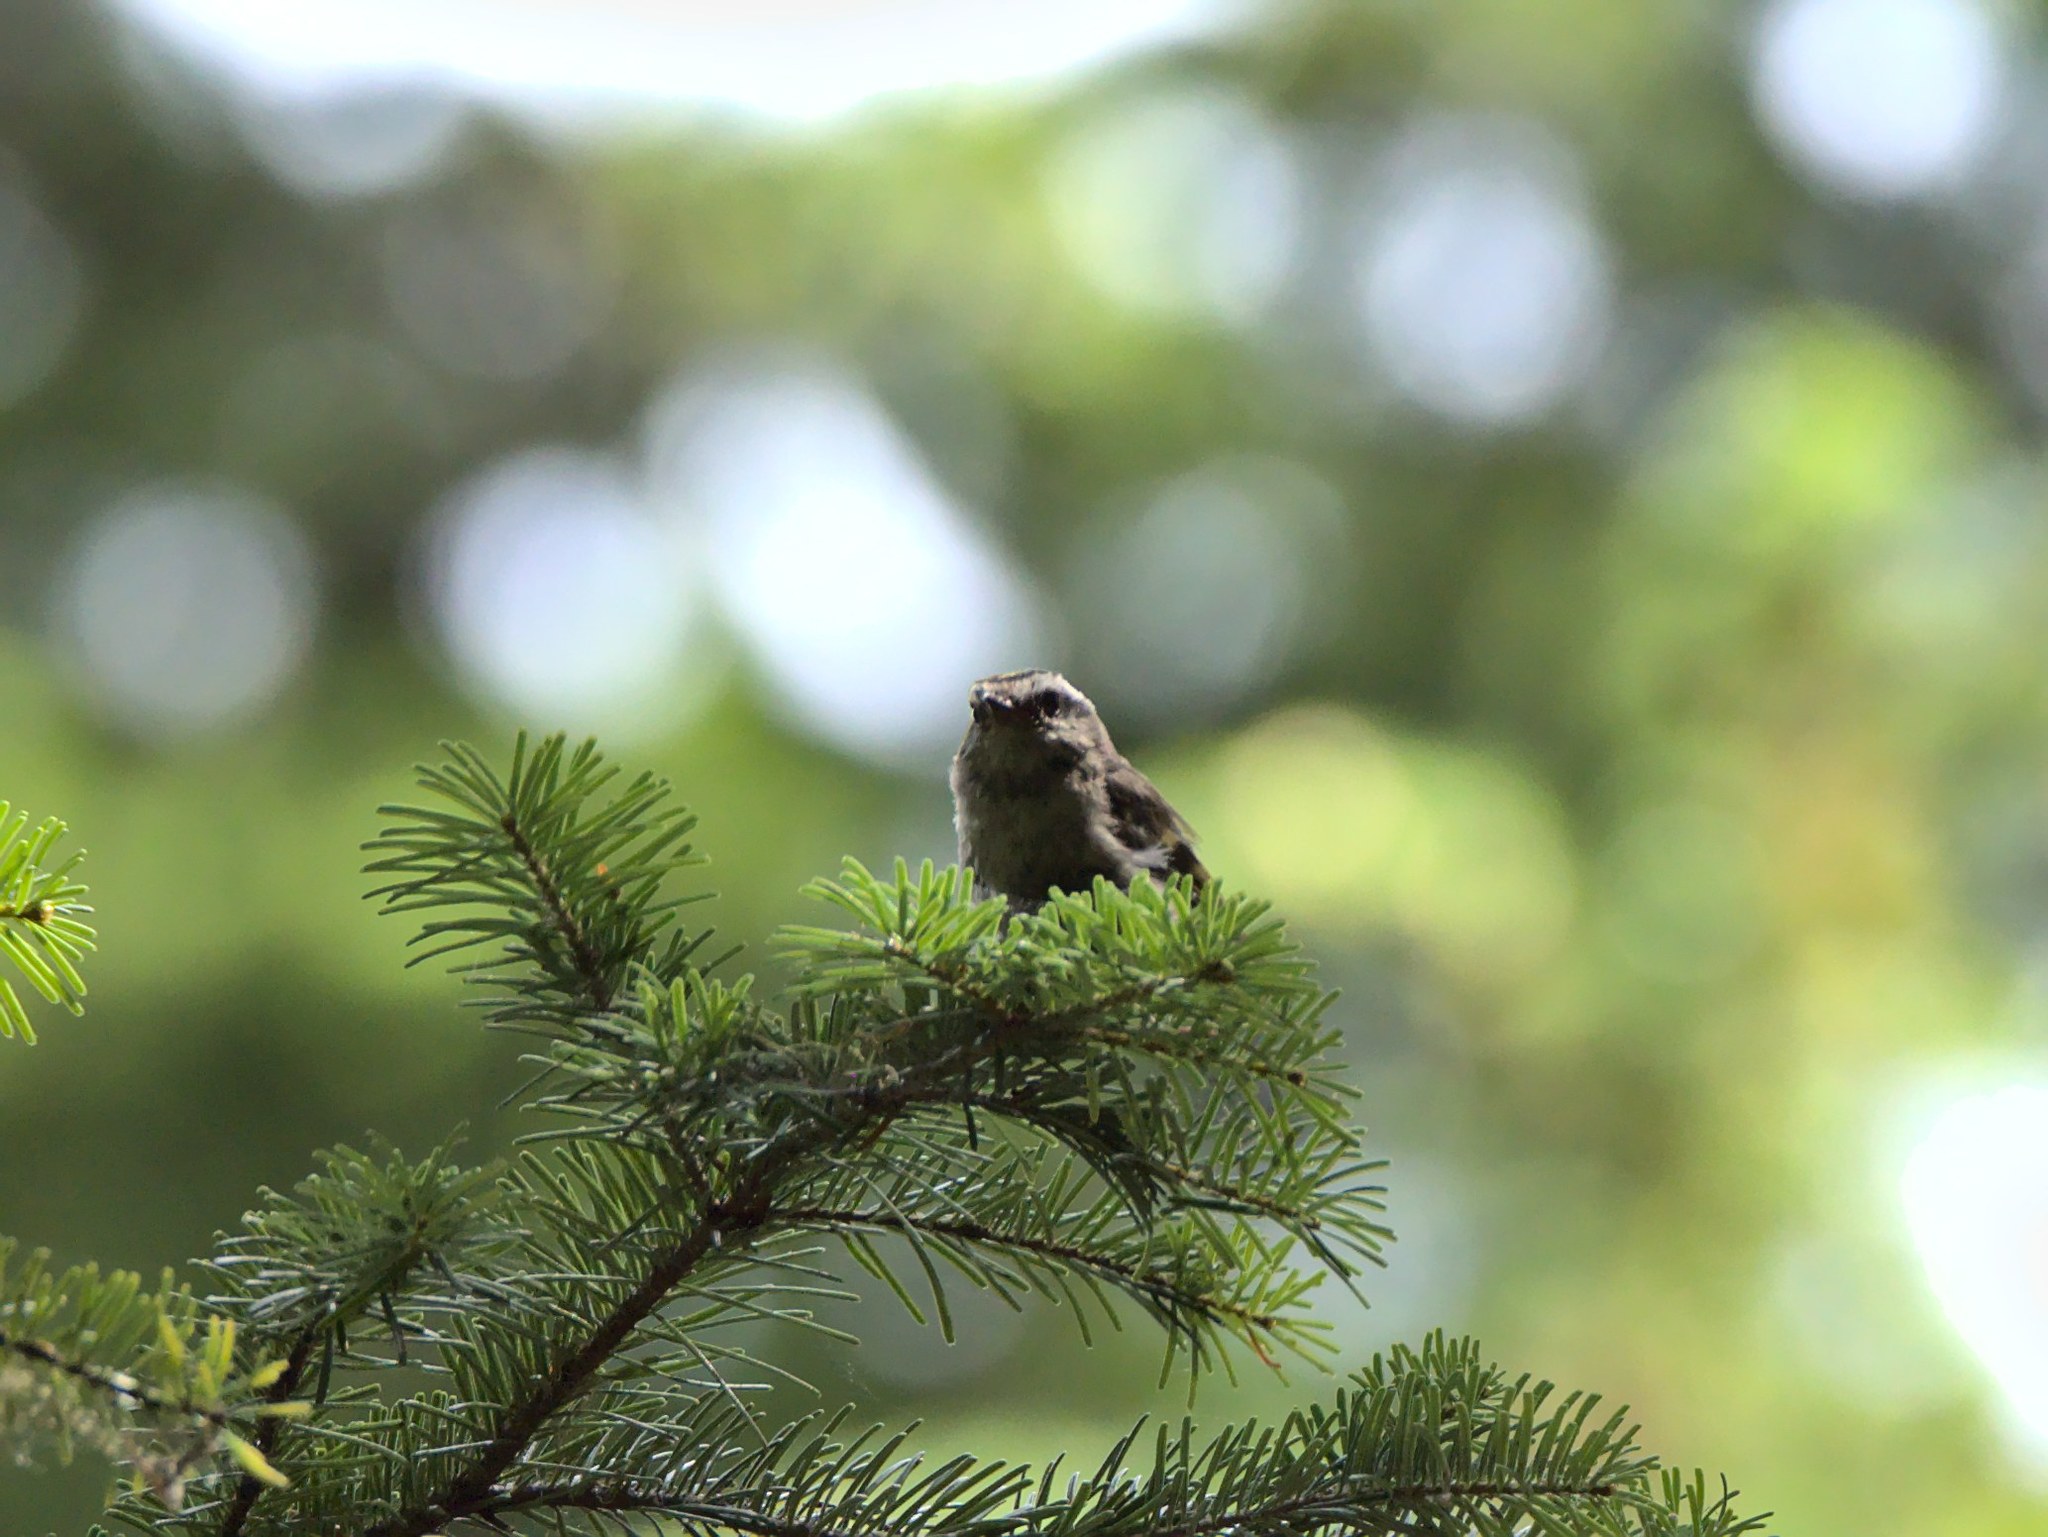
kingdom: Animalia
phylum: Chordata
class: Aves
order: Passeriformes
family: Regulidae
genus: Regulus
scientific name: Regulus satrapa
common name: Golden-crowned kinglet
